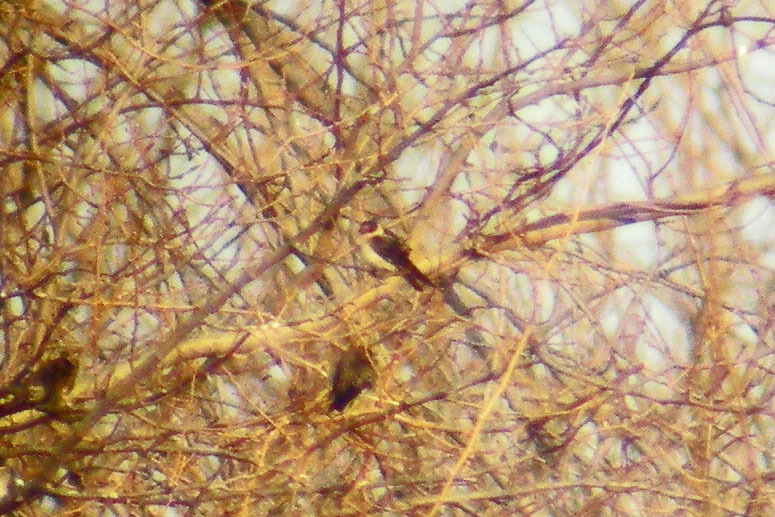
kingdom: Animalia
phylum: Chordata
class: Aves
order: Passeriformes
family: Hirundinidae
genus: Petrochelidon
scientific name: Petrochelidon fulva
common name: Cave swallow
